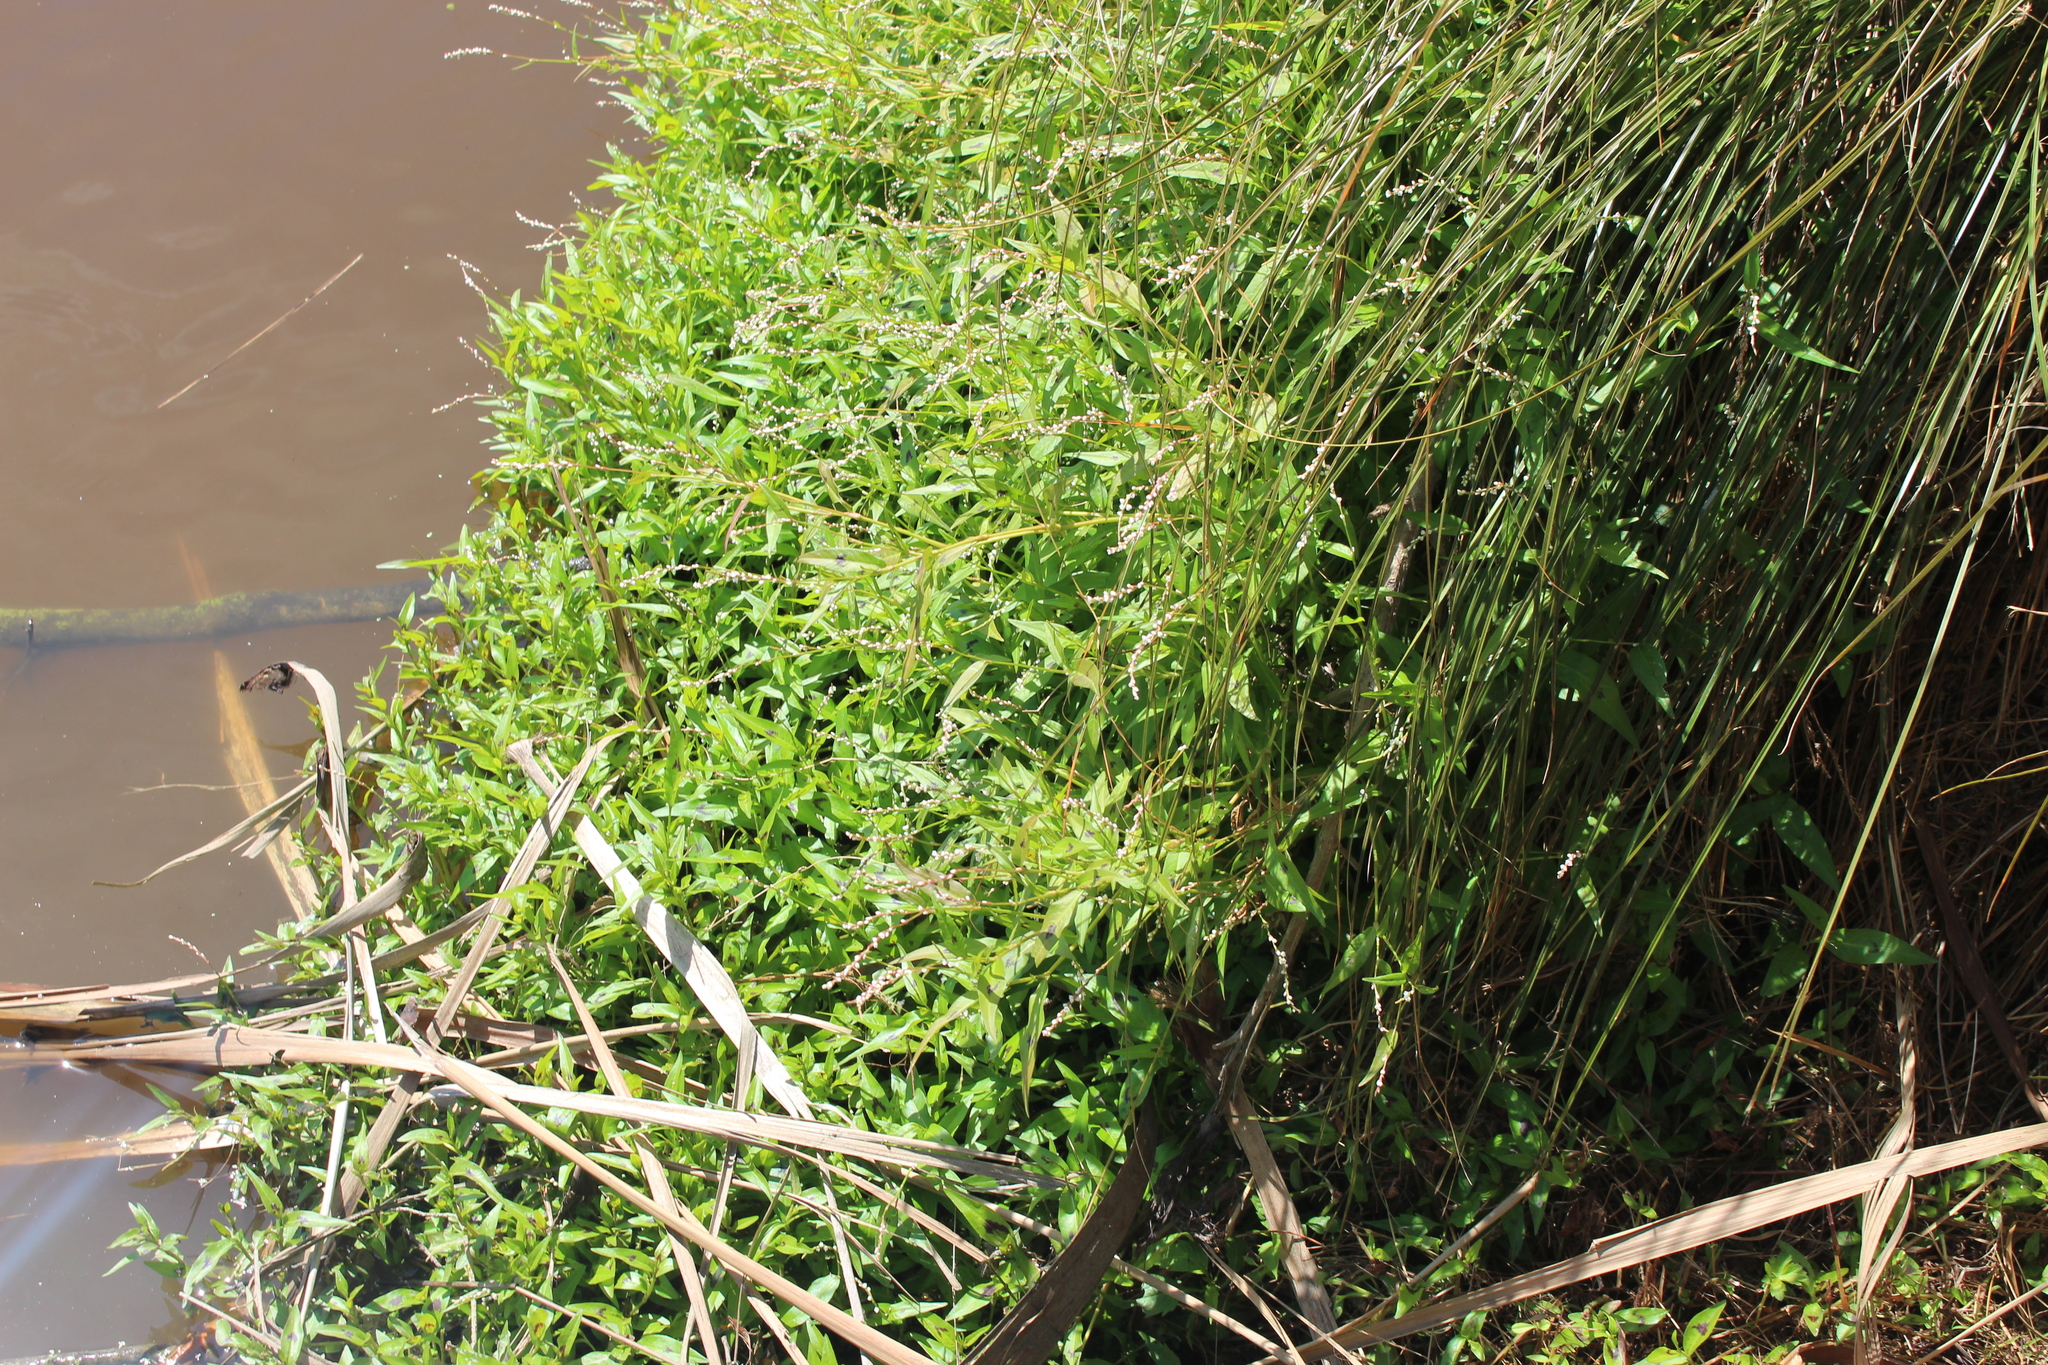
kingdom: Plantae
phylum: Tracheophyta
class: Magnoliopsida
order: Caryophyllales
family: Polygonaceae
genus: Persicaria
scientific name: Persicaria decipiens
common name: Willow-weed
